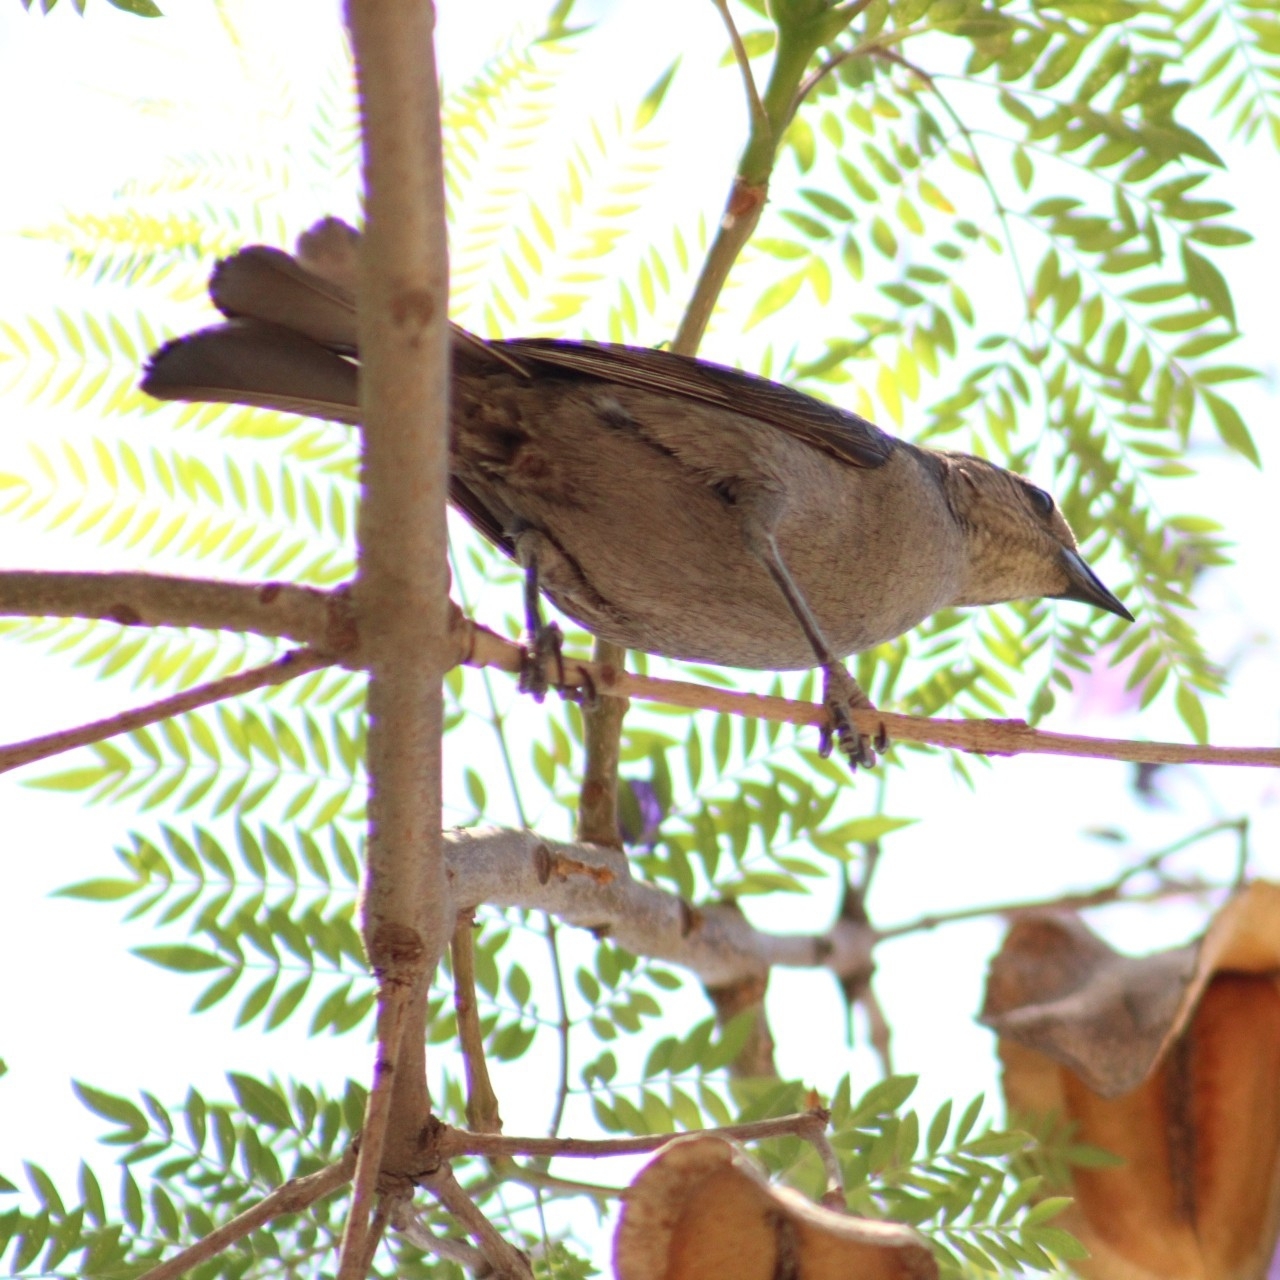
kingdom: Animalia
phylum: Chordata
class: Aves
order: Passeriformes
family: Icteridae
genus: Molothrus
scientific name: Molothrus bonariensis
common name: Shiny cowbird
